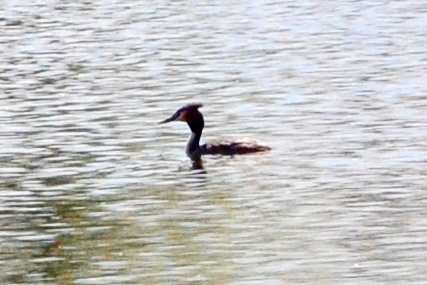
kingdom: Animalia
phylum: Chordata
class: Aves
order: Podicipediformes
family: Podicipedidae
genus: Podiceps
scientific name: Podiceps cristatus
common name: Great crested grebe
